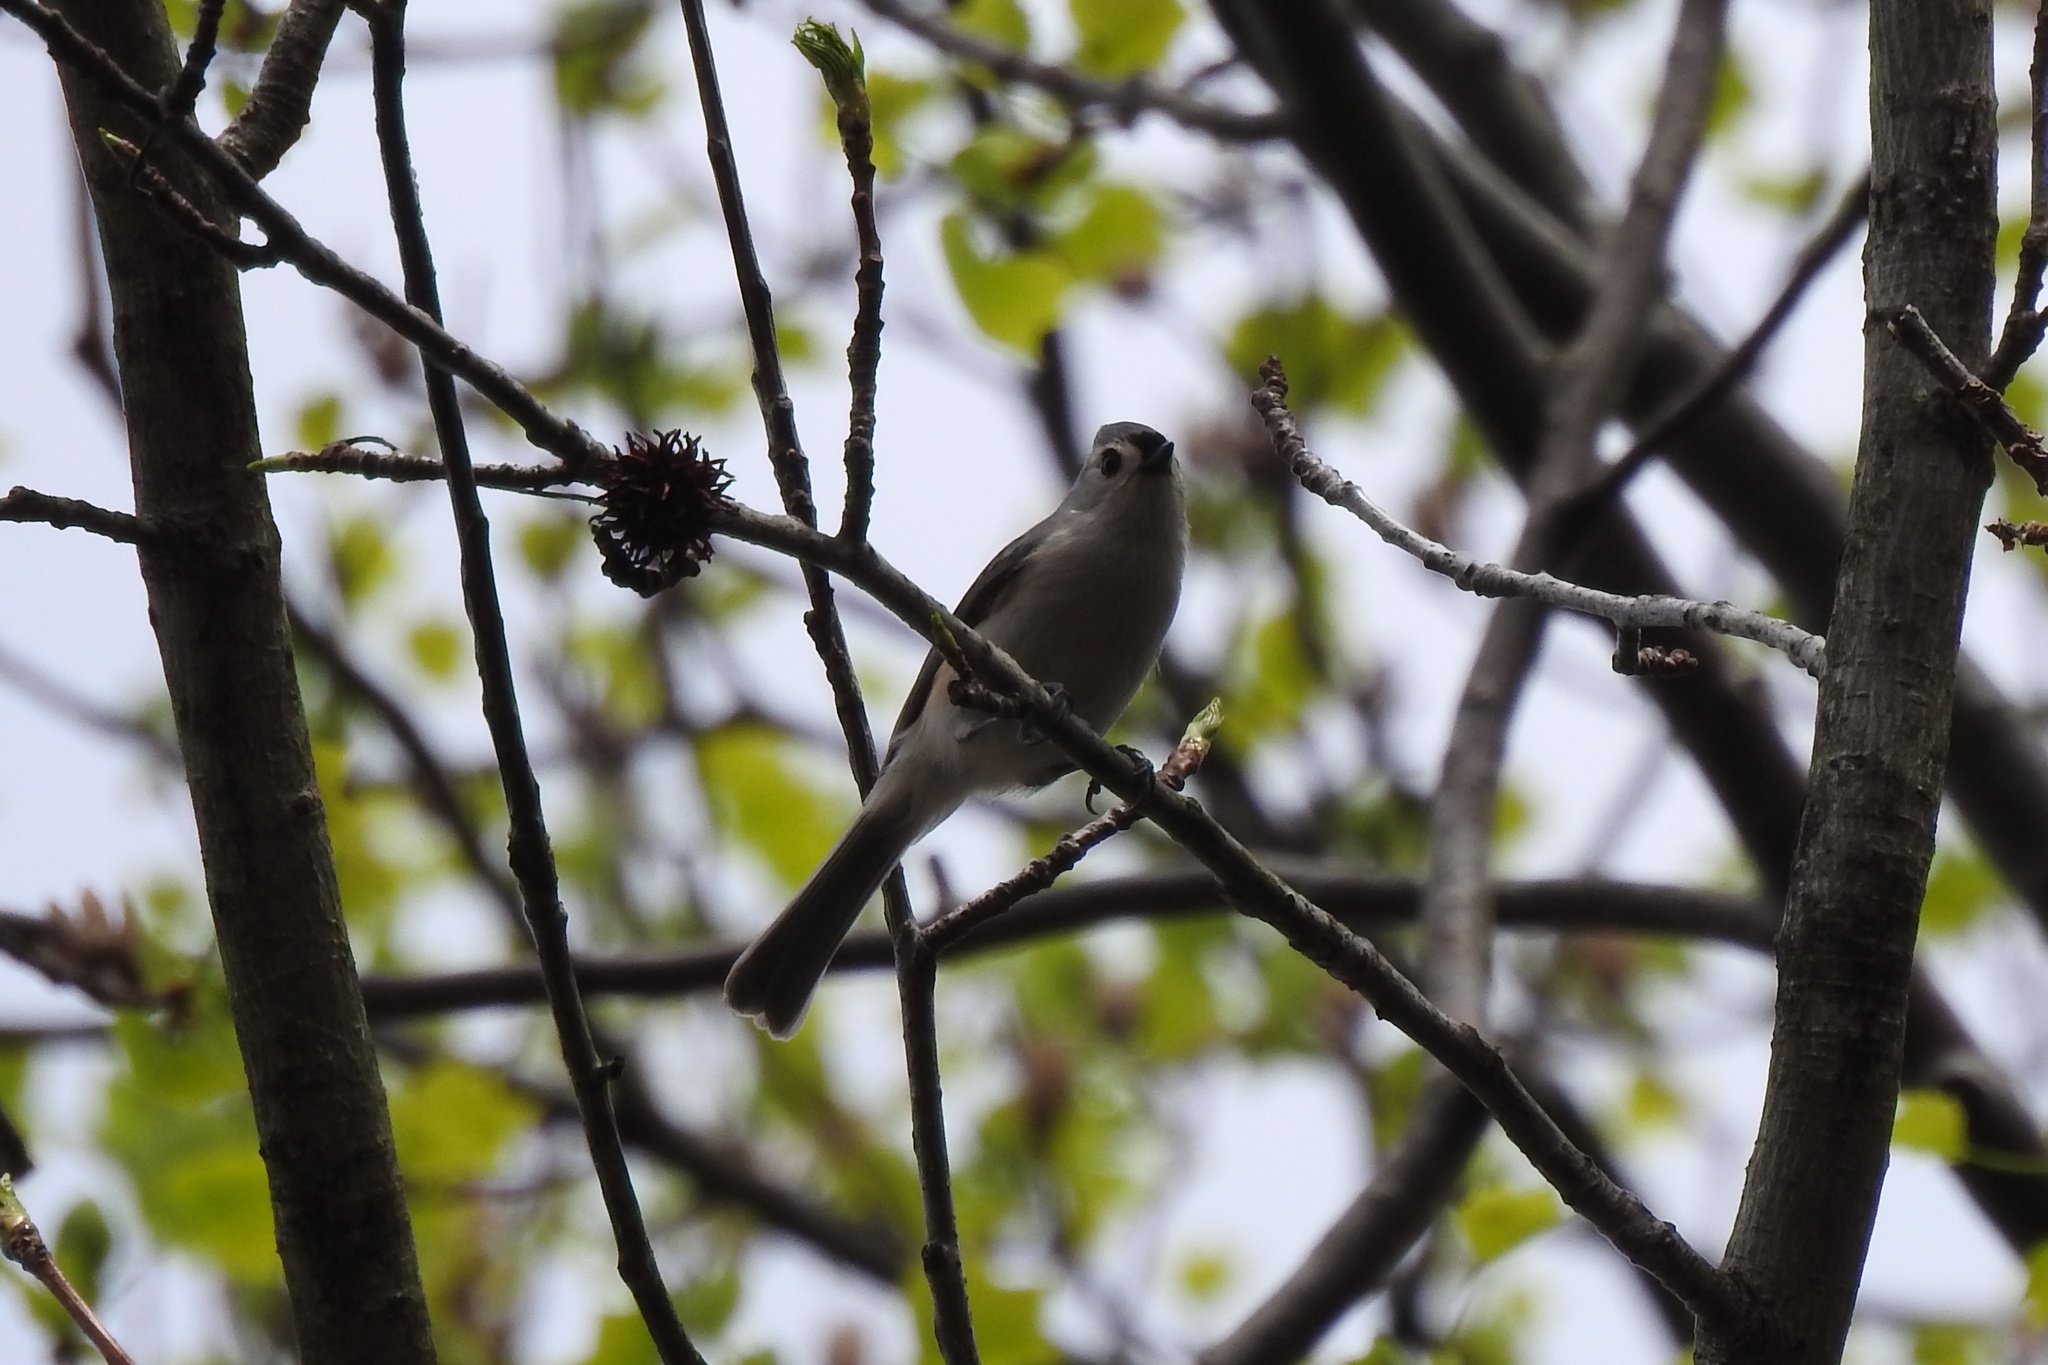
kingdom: Animalia
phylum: Chordata
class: Aves
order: Passeriformes
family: Paridae
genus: Baeolophus
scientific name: Baeolophus bicolor
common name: Tufted titmouse
